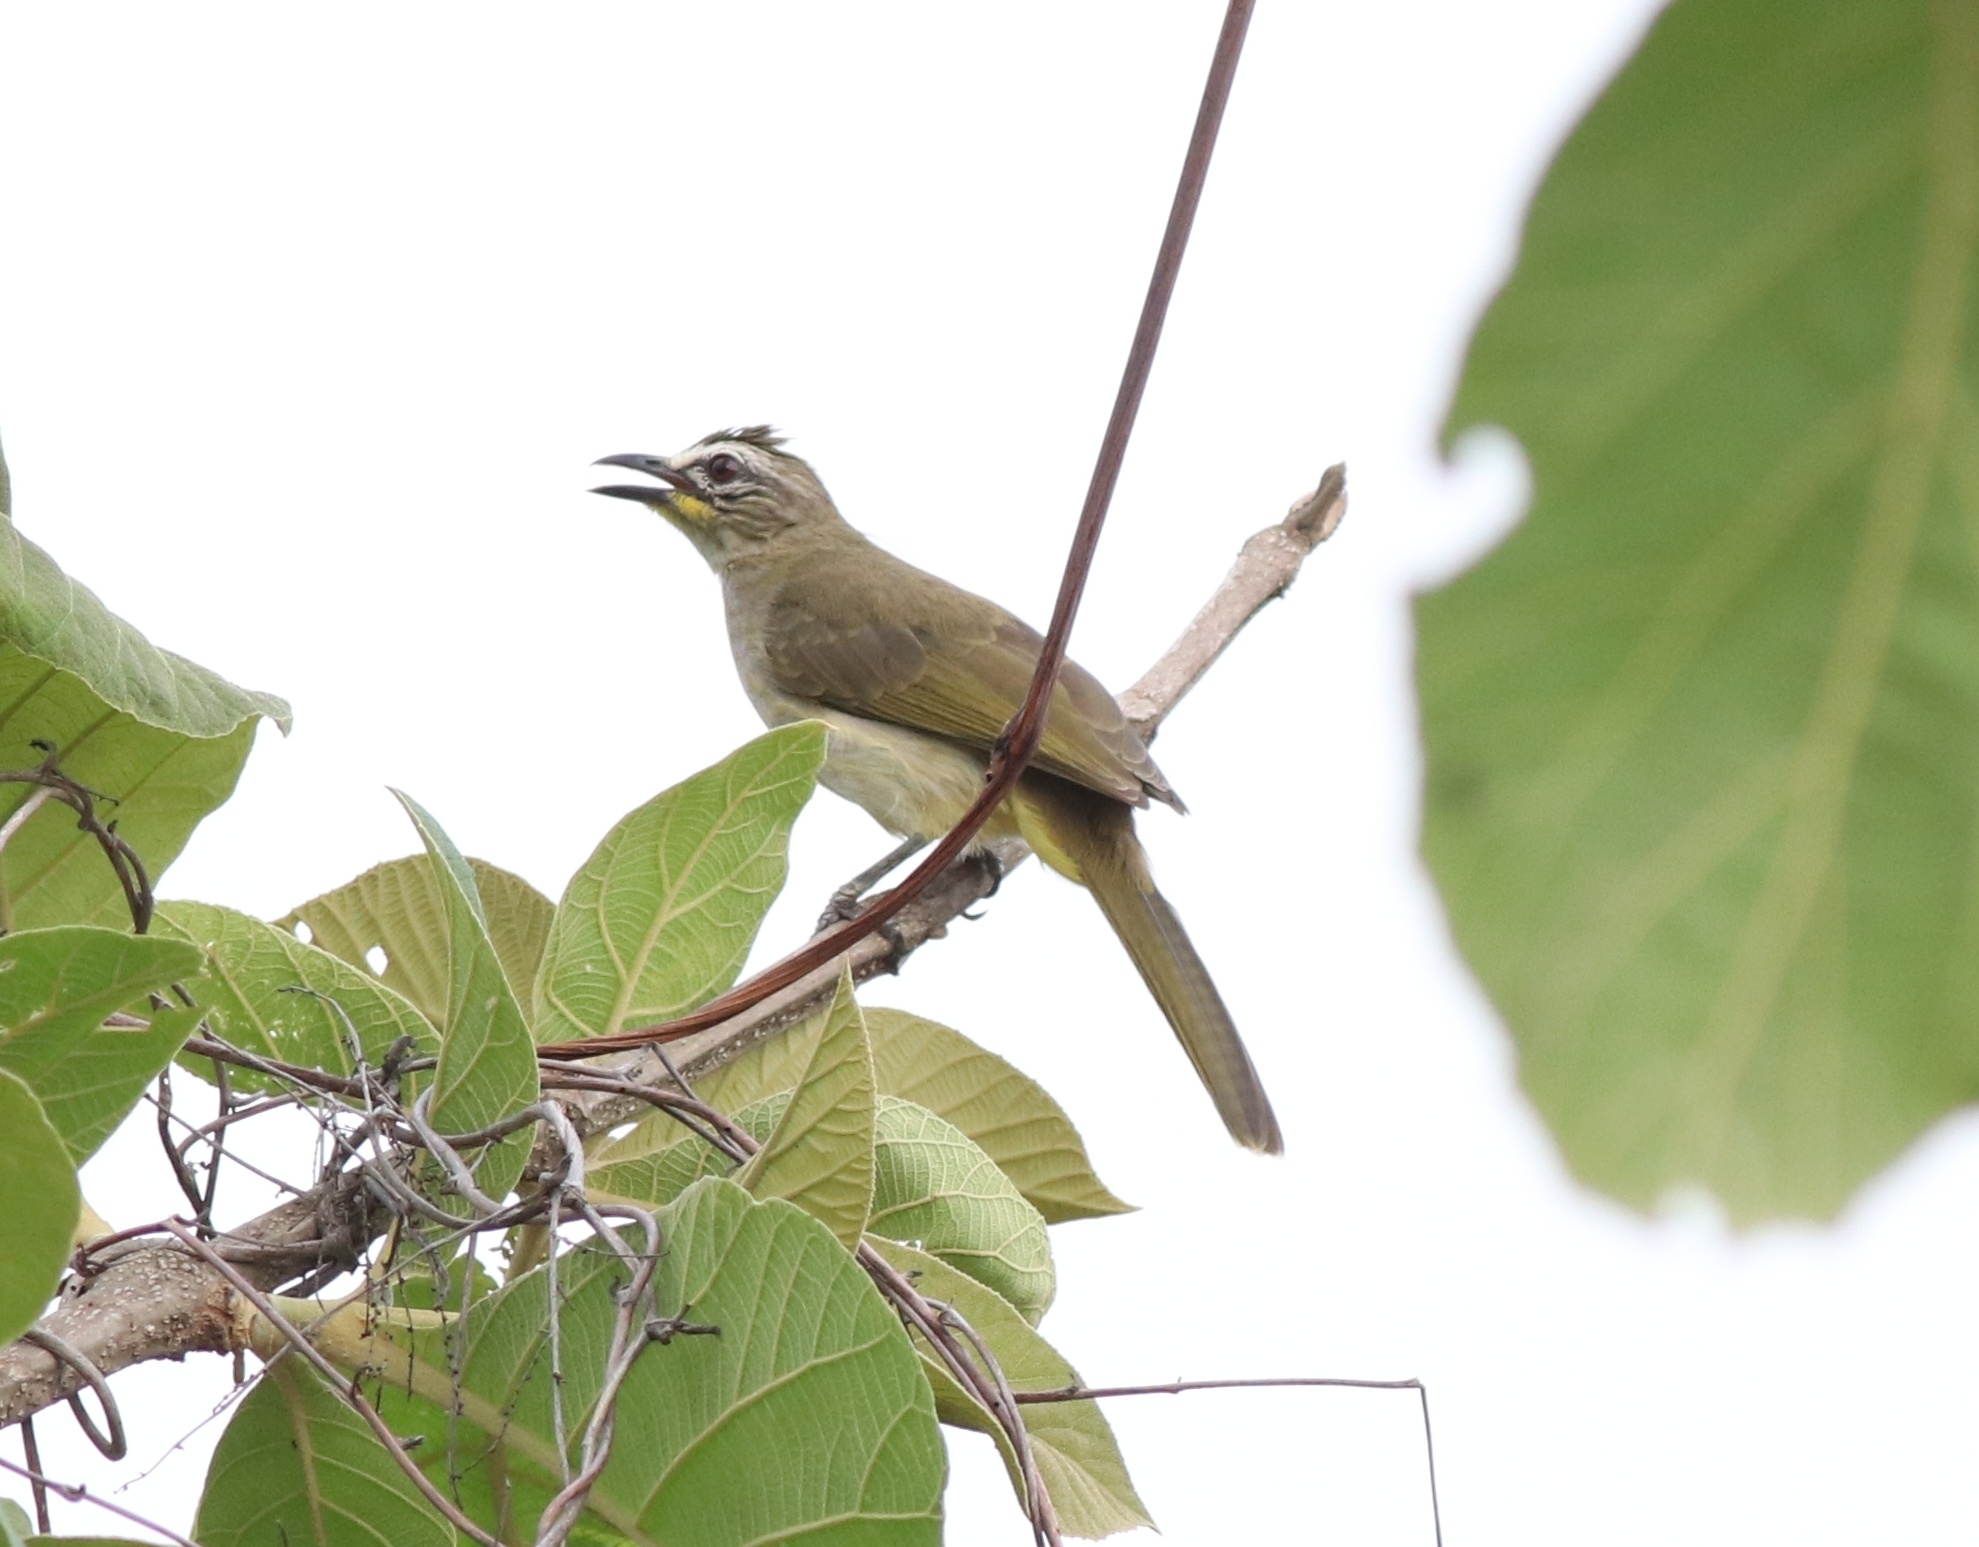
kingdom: Animalia
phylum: Chordata
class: Aves
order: Passeriformes
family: Pycnonotidae
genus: Pycnonotus
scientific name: Pycnonotus luteolus
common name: White-browed bulbul
